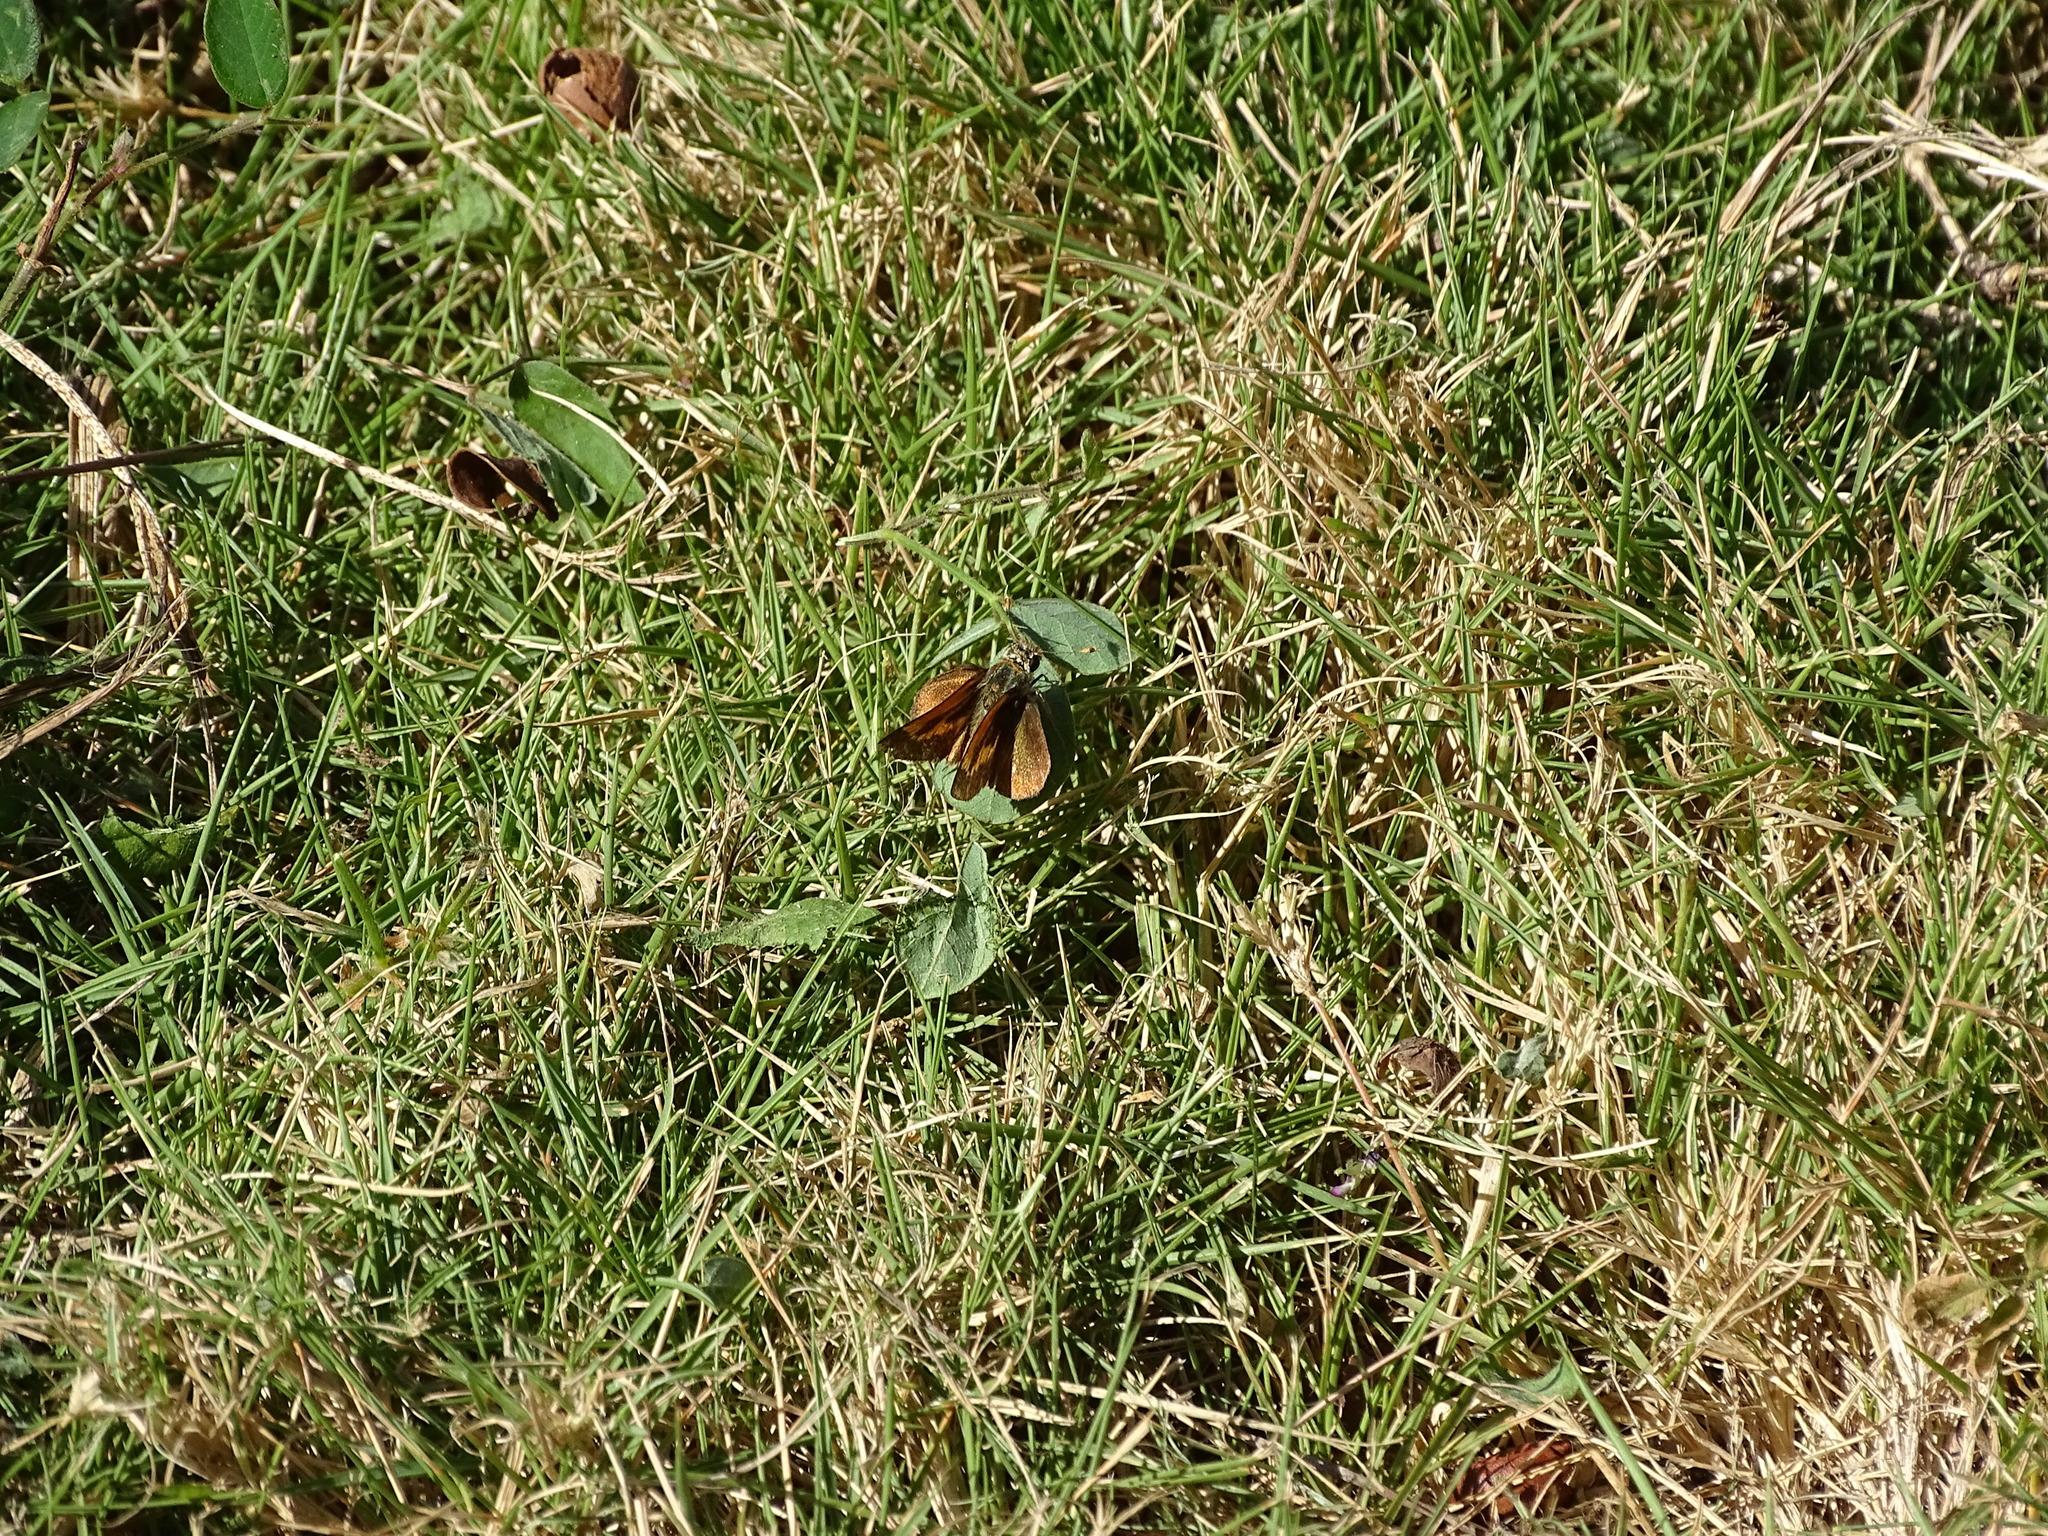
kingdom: Animalia
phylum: Arthropoda
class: Insecta
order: Lepidoptera
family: Hesperiidae
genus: Polites
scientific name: Polites baracoa
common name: Baracoa skipper
